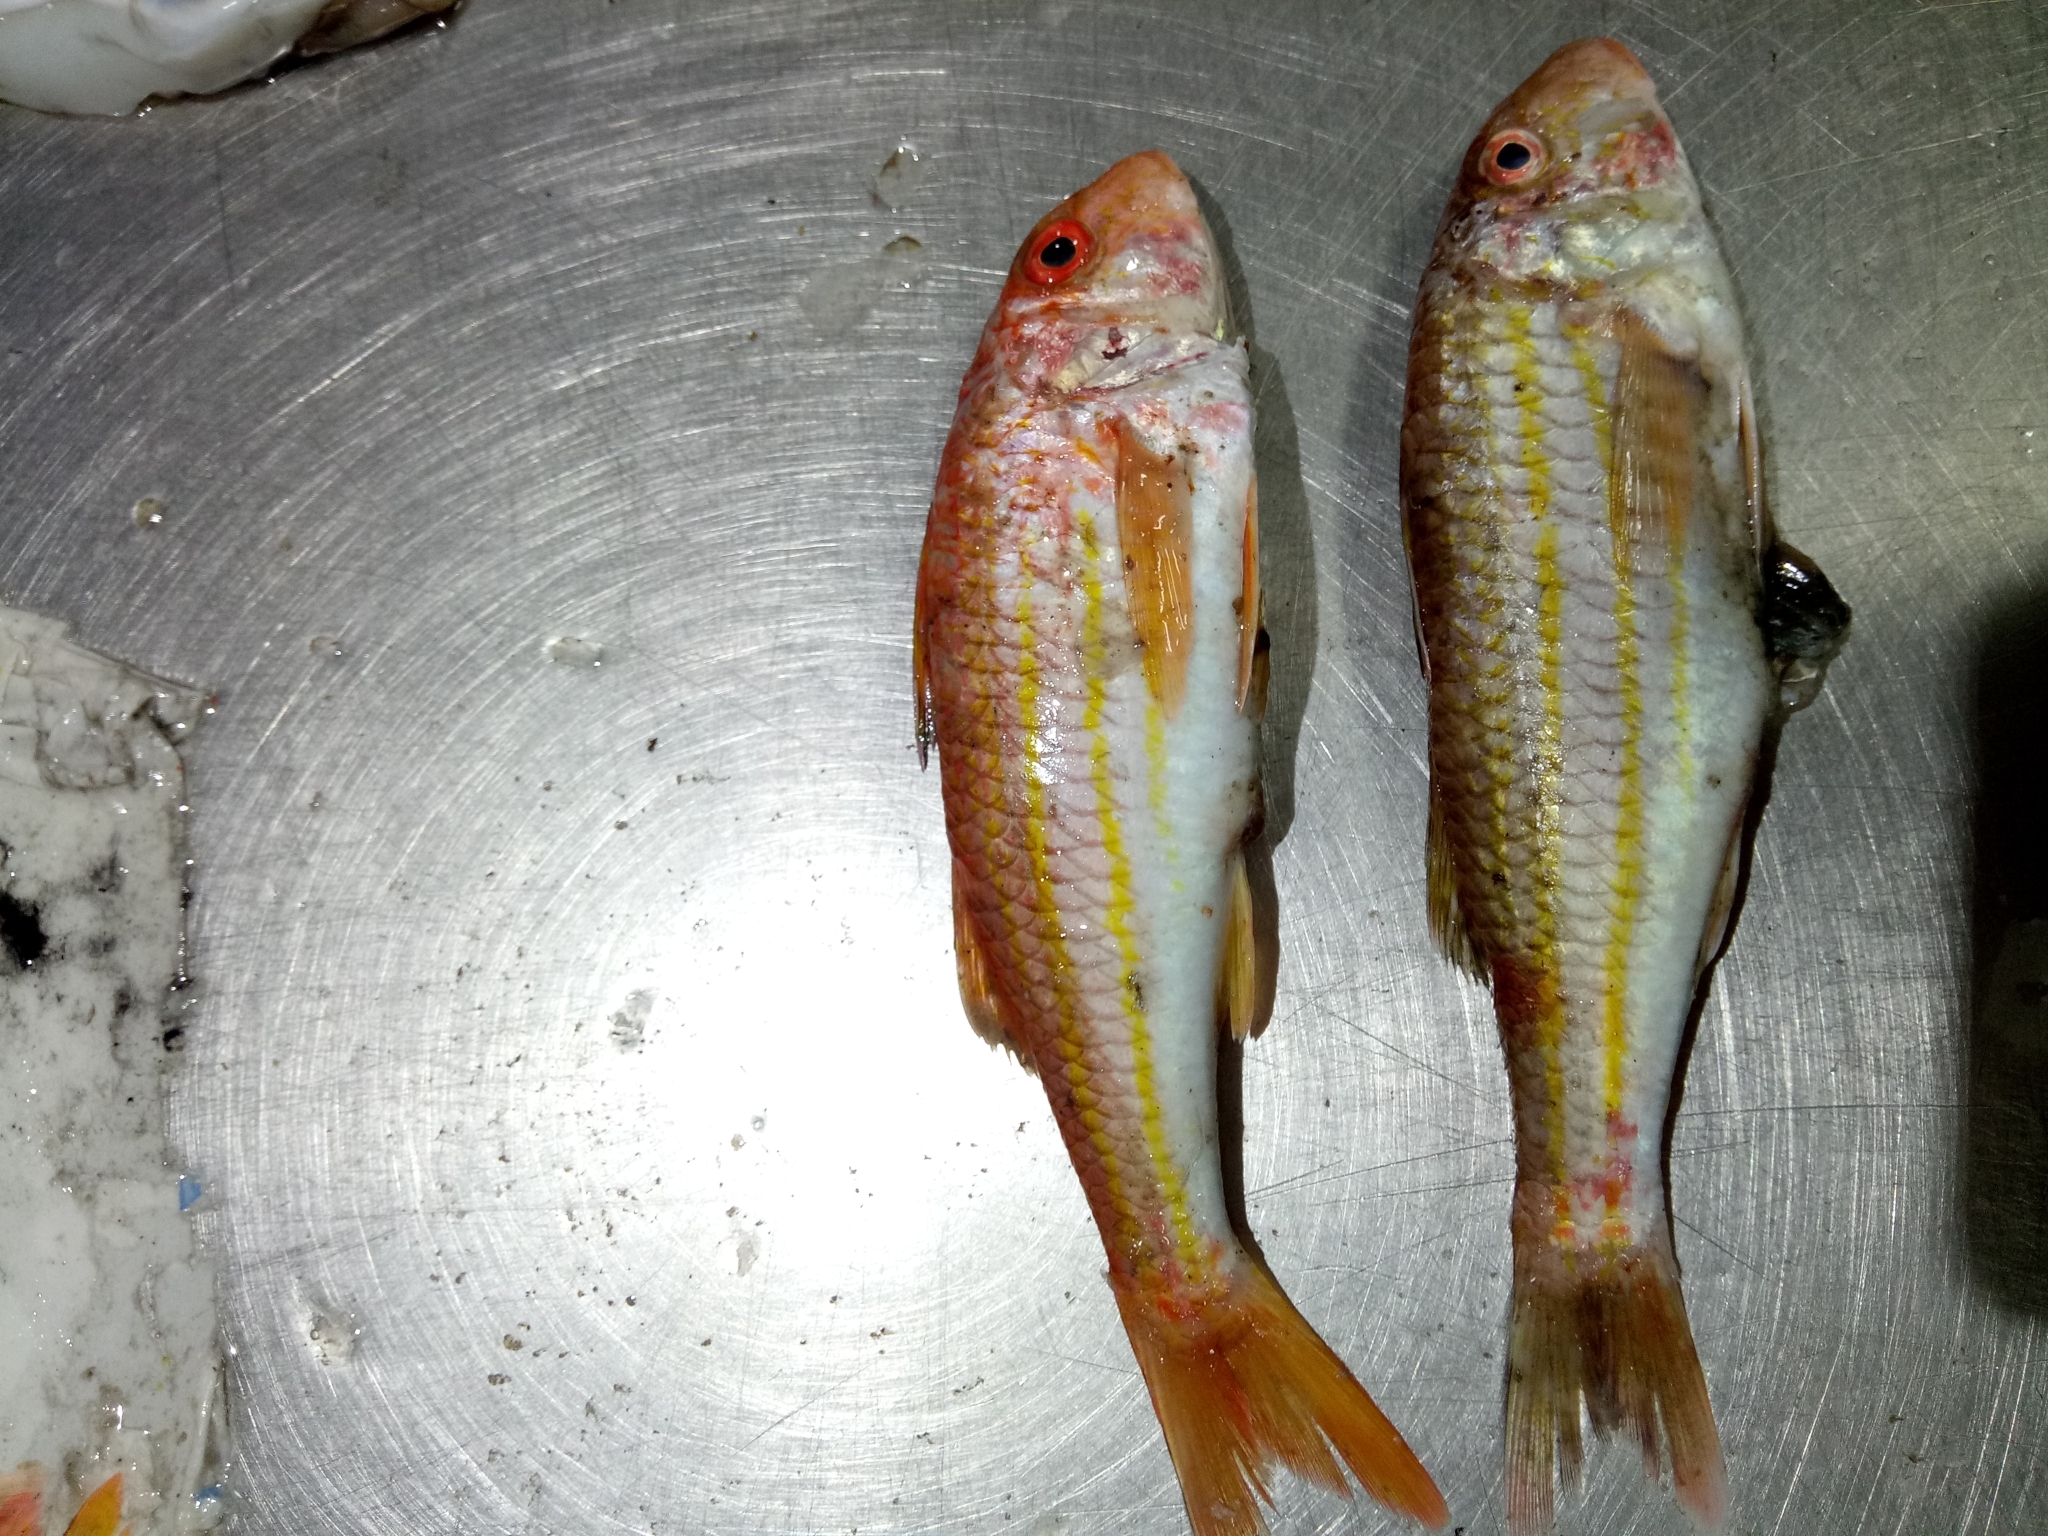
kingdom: Animalia
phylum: Chordata
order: Perciformes
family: Mullidae
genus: Mullus
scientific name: Mullus surmuletus
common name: Red mullet
